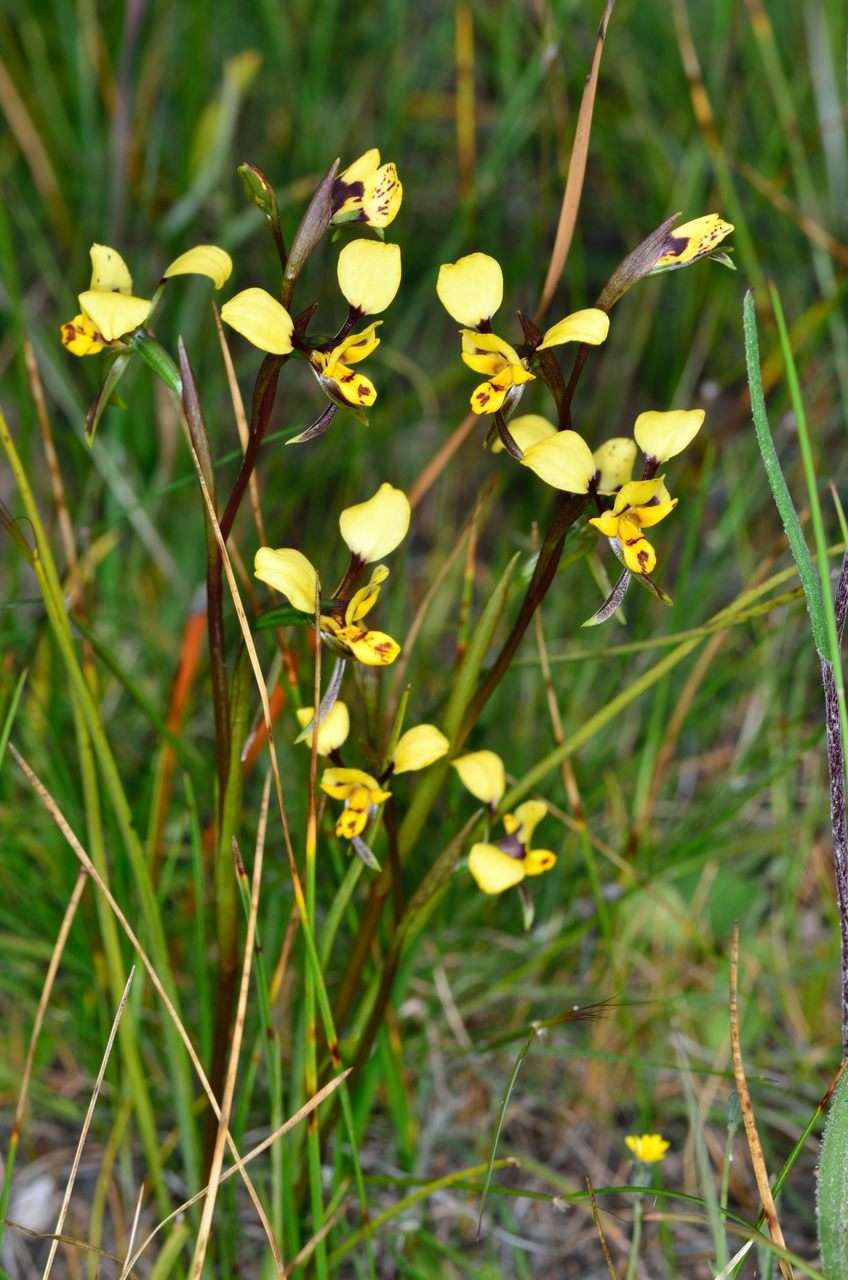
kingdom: Plantae
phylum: Tracheophyta
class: Liliopsida
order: Asparagales
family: Orchidaceae
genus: Diuris
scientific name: Diuris pardina
